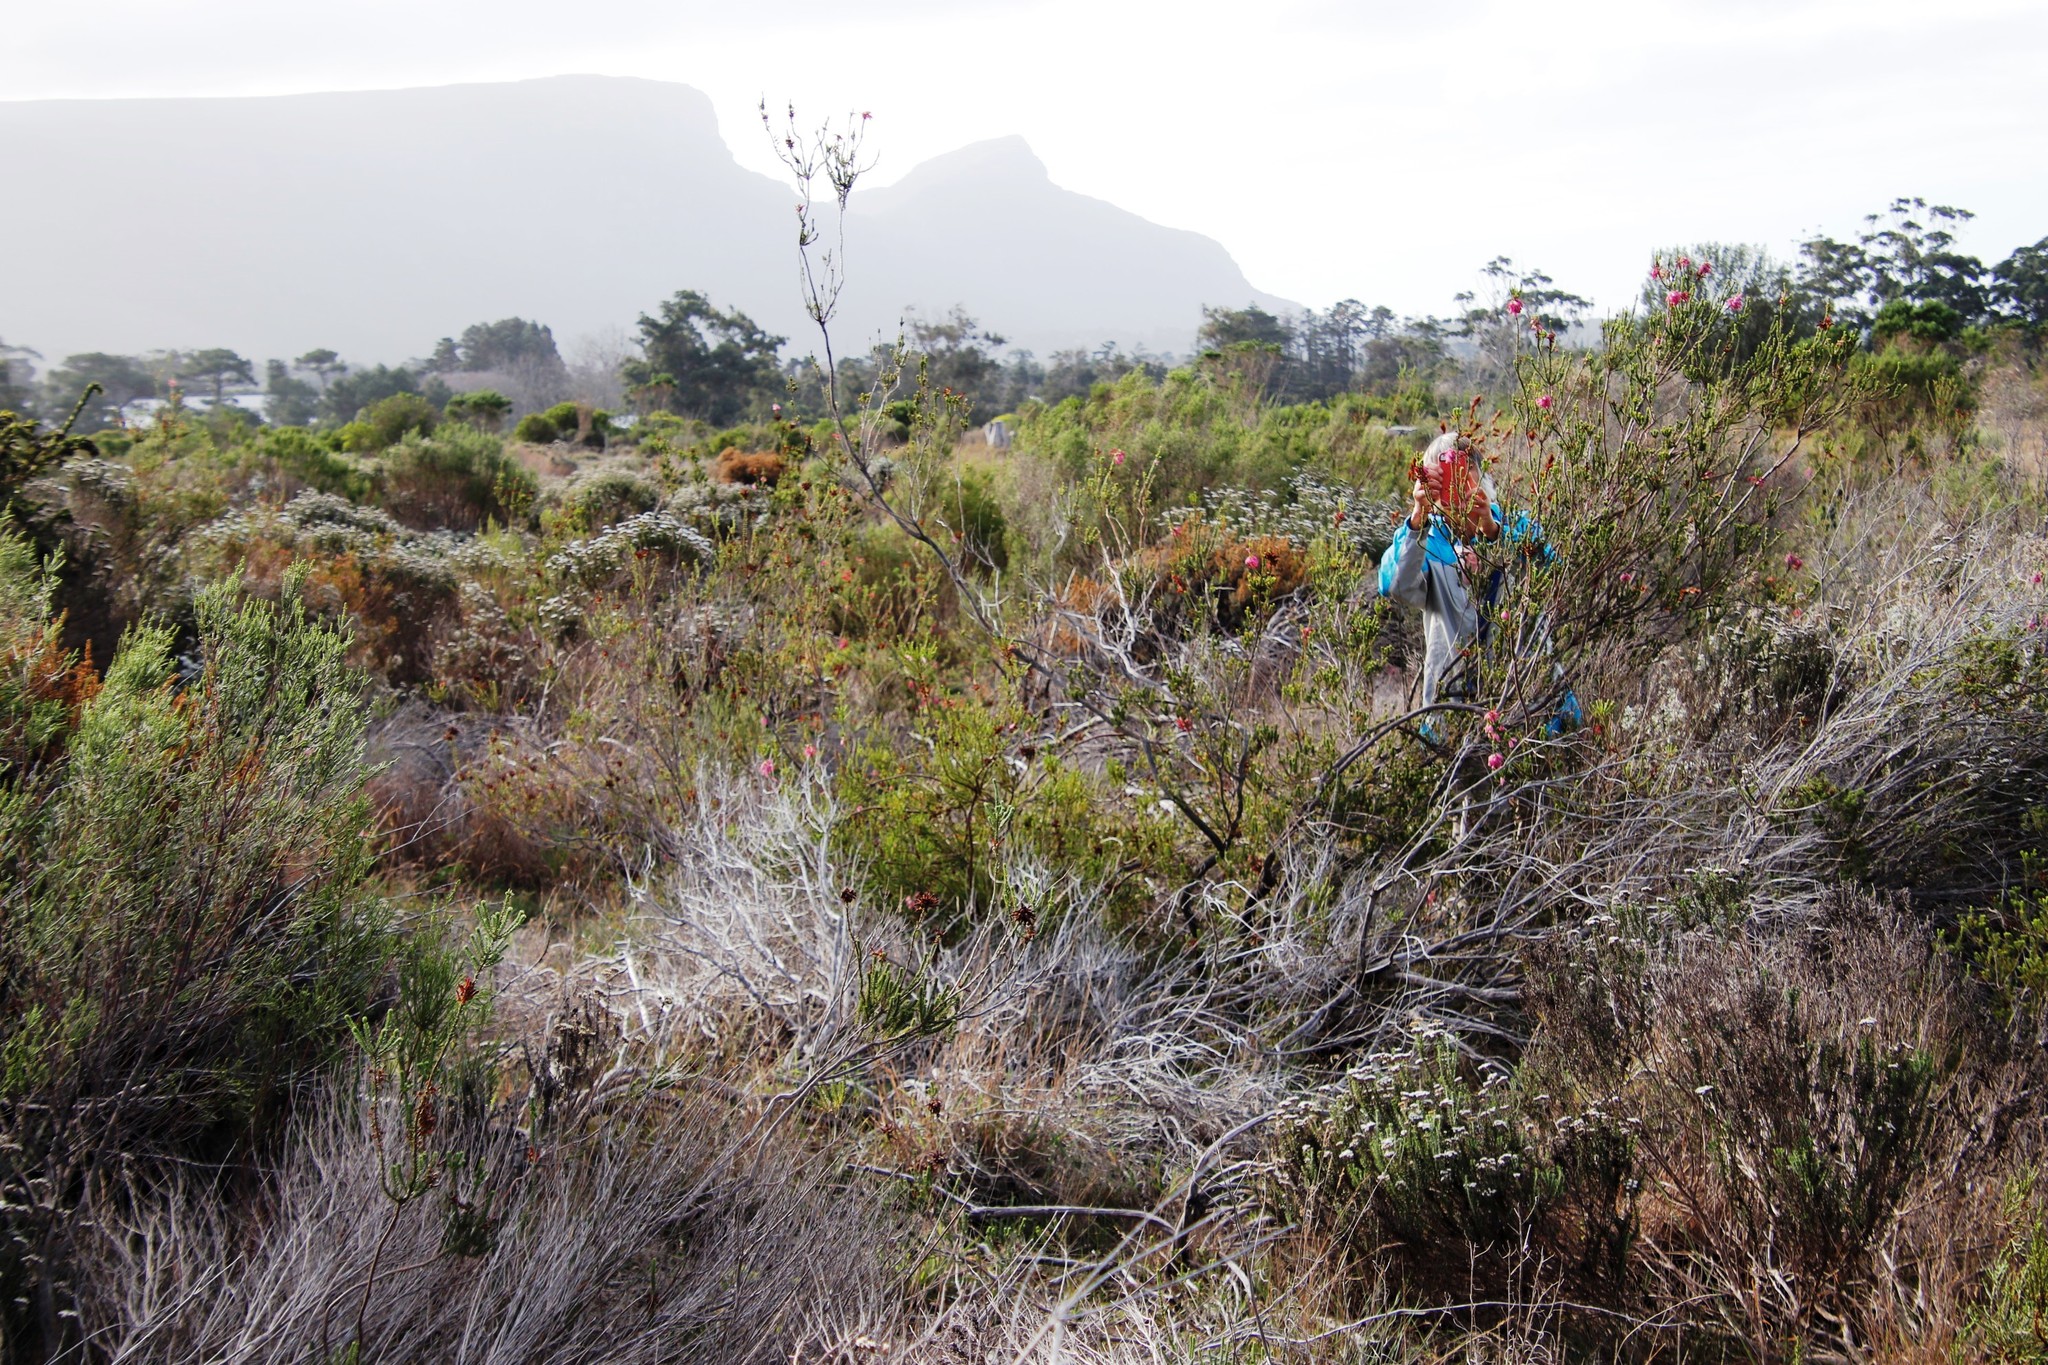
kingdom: Plantae
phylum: Tracheophyta
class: Magnoliopsida
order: Ericales
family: Ericaceae
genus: Erica
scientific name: Erica mammosa
